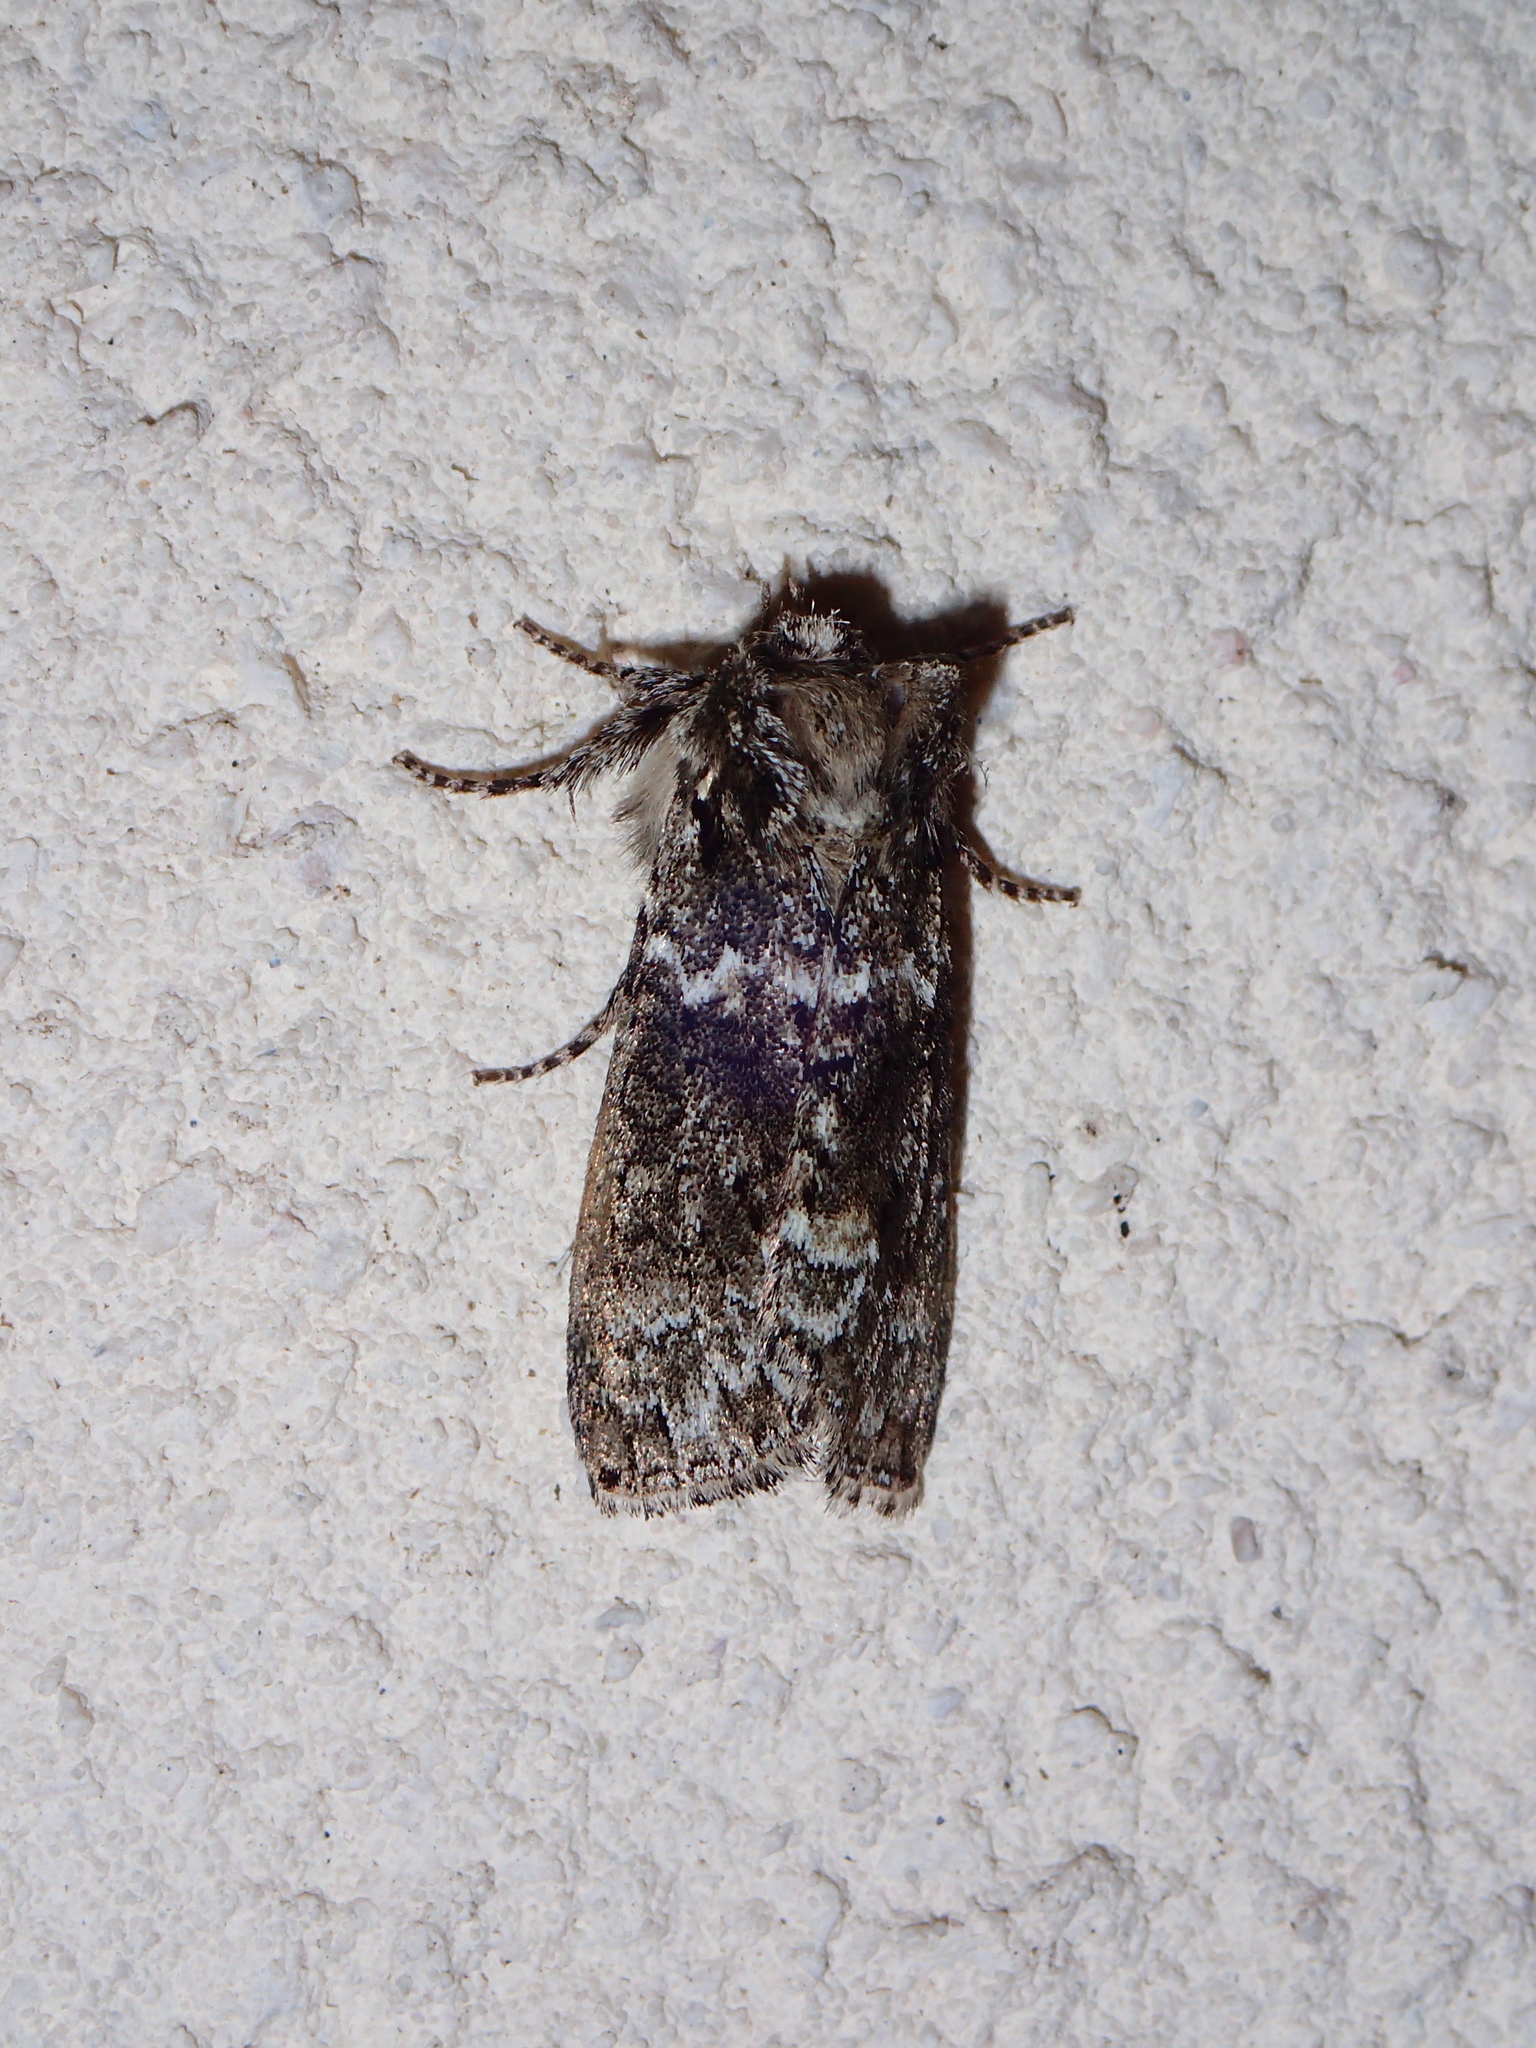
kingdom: Animalia
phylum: Arthropoda
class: Insecta
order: Lepidoptera
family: Drepanidae
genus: Polyploca
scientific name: Polyploca ridens
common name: Frosted green
